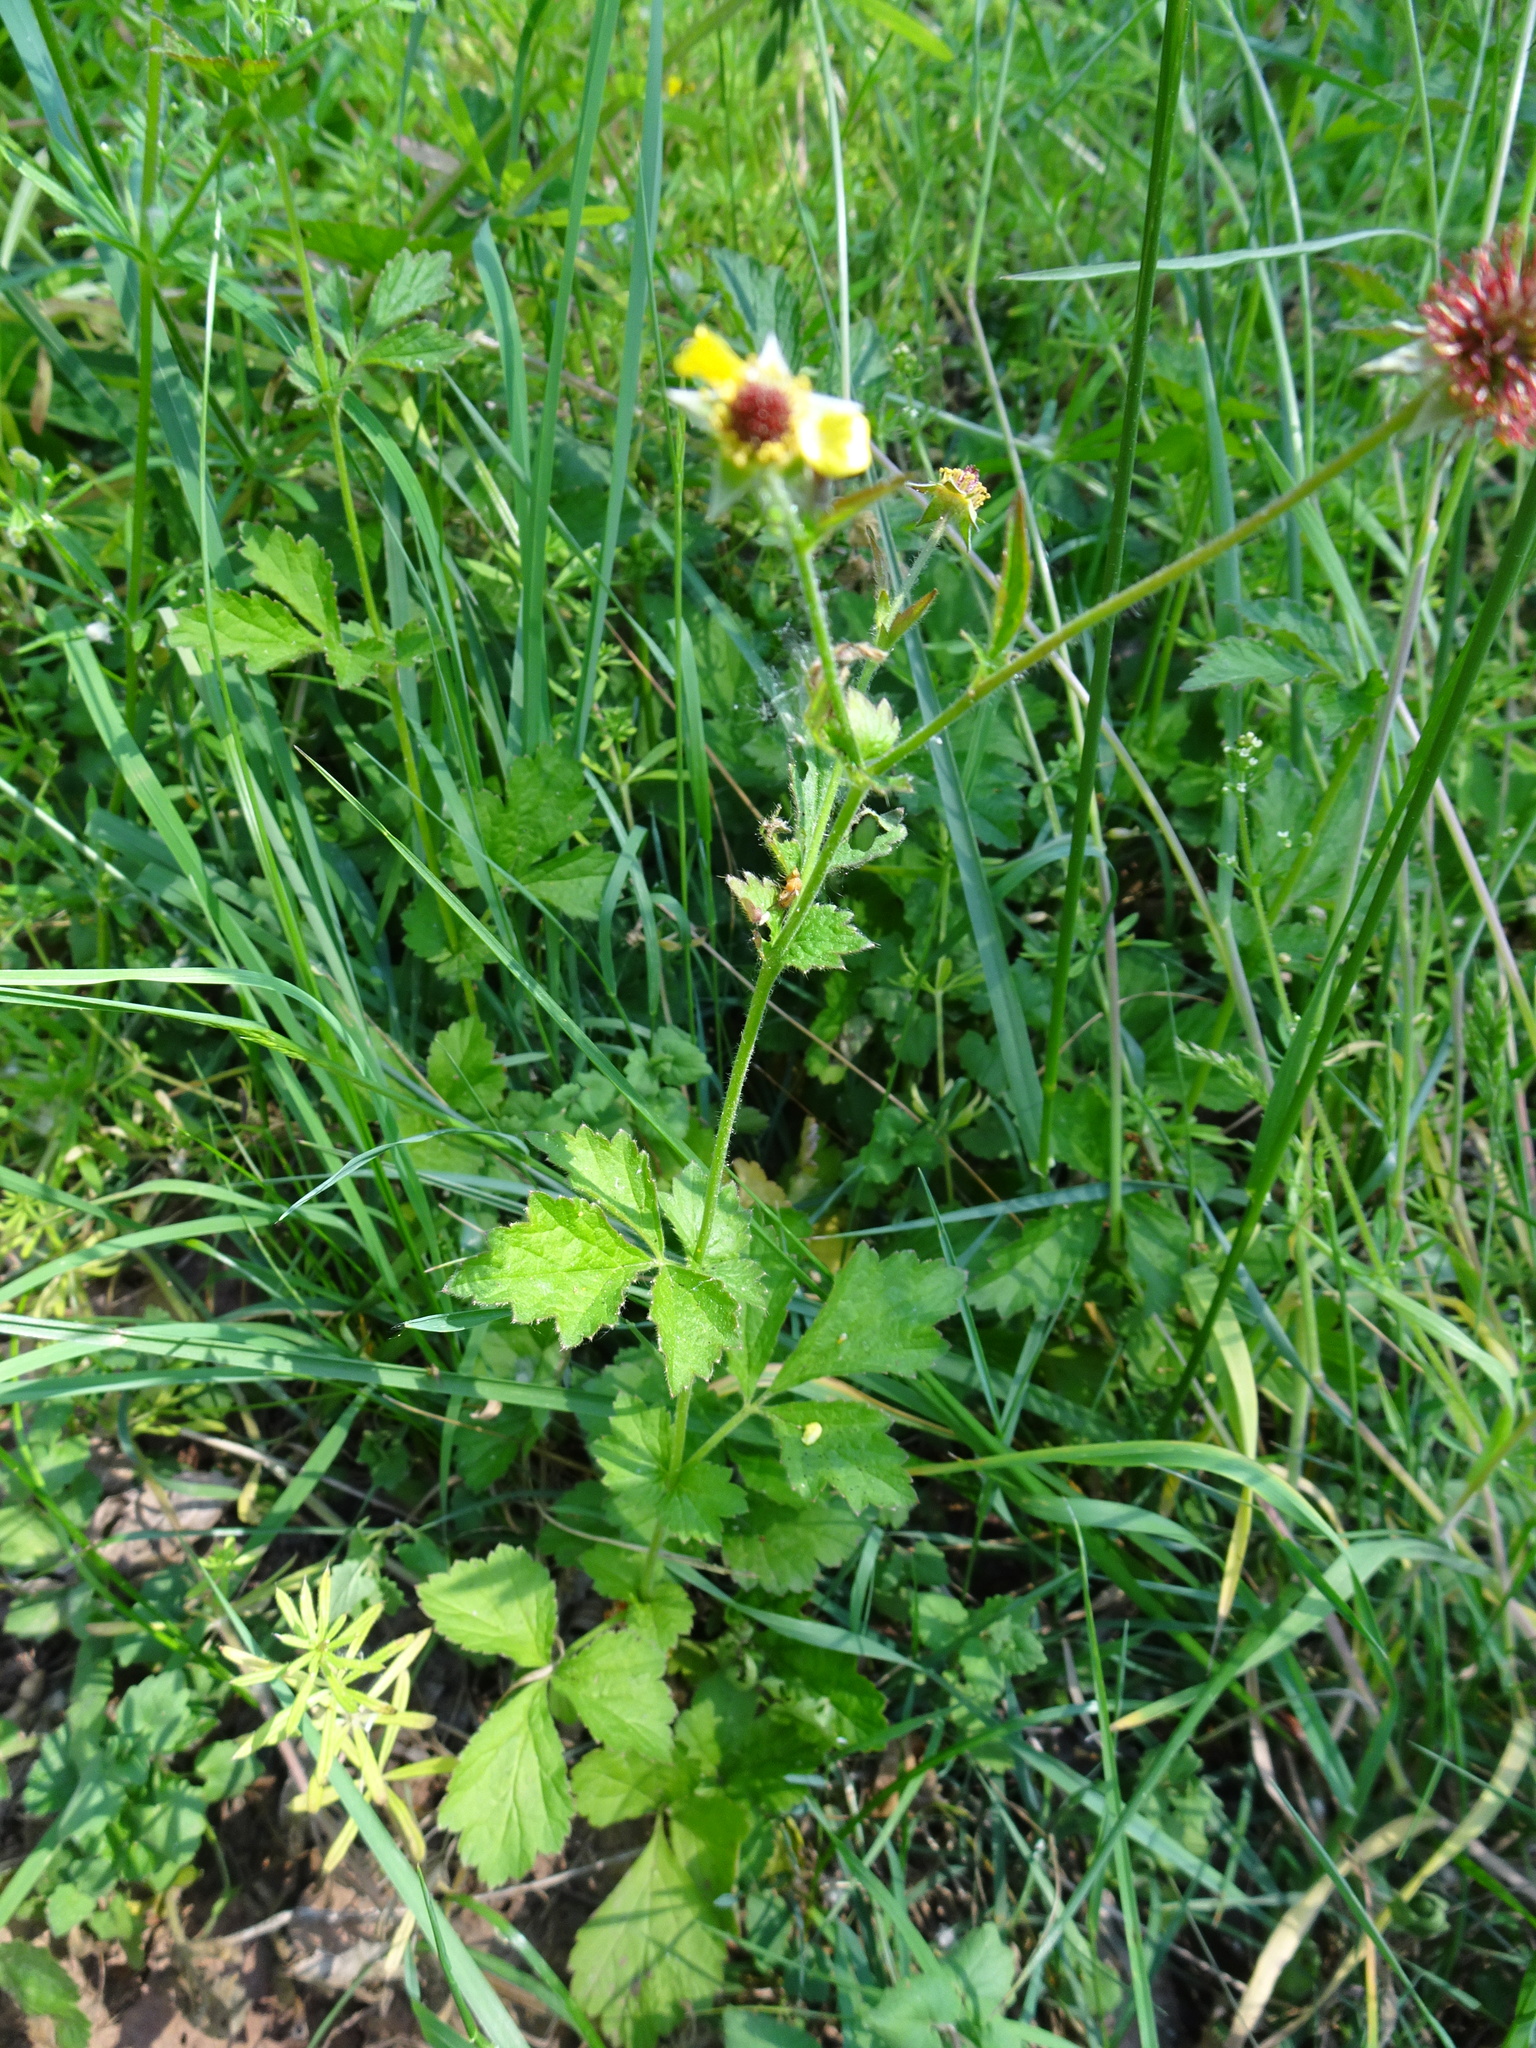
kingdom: Plantae
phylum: Tracheophyta
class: Magnoliopsida
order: Rosales
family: Rosaceae
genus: Geum
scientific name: Geum urbanum
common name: Wood avens
